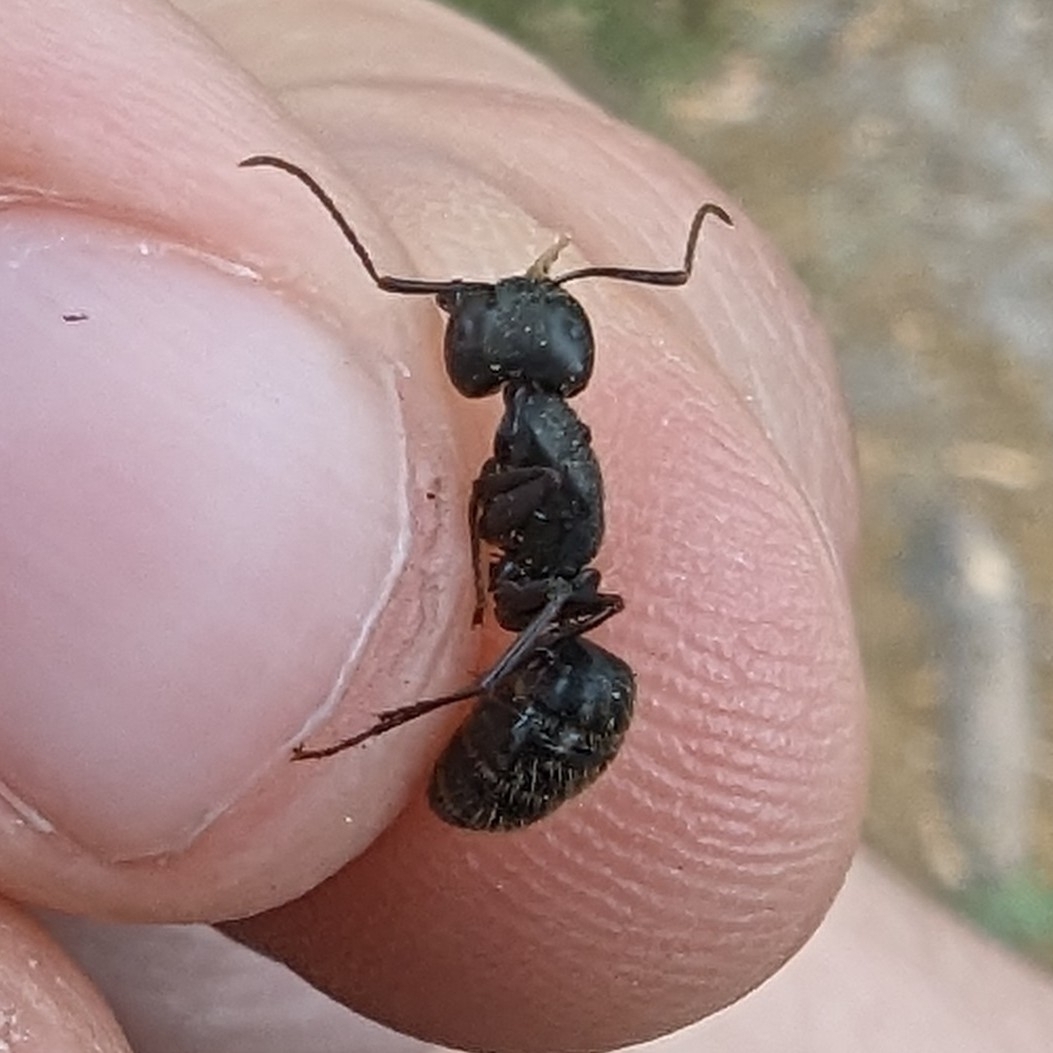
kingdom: Animalia
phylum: Arthropoda
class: Insecta
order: Hymenoptera
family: Formicidae
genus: Camponotus
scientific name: Camponotus pennsylvanicus
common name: Black carpenter ant
